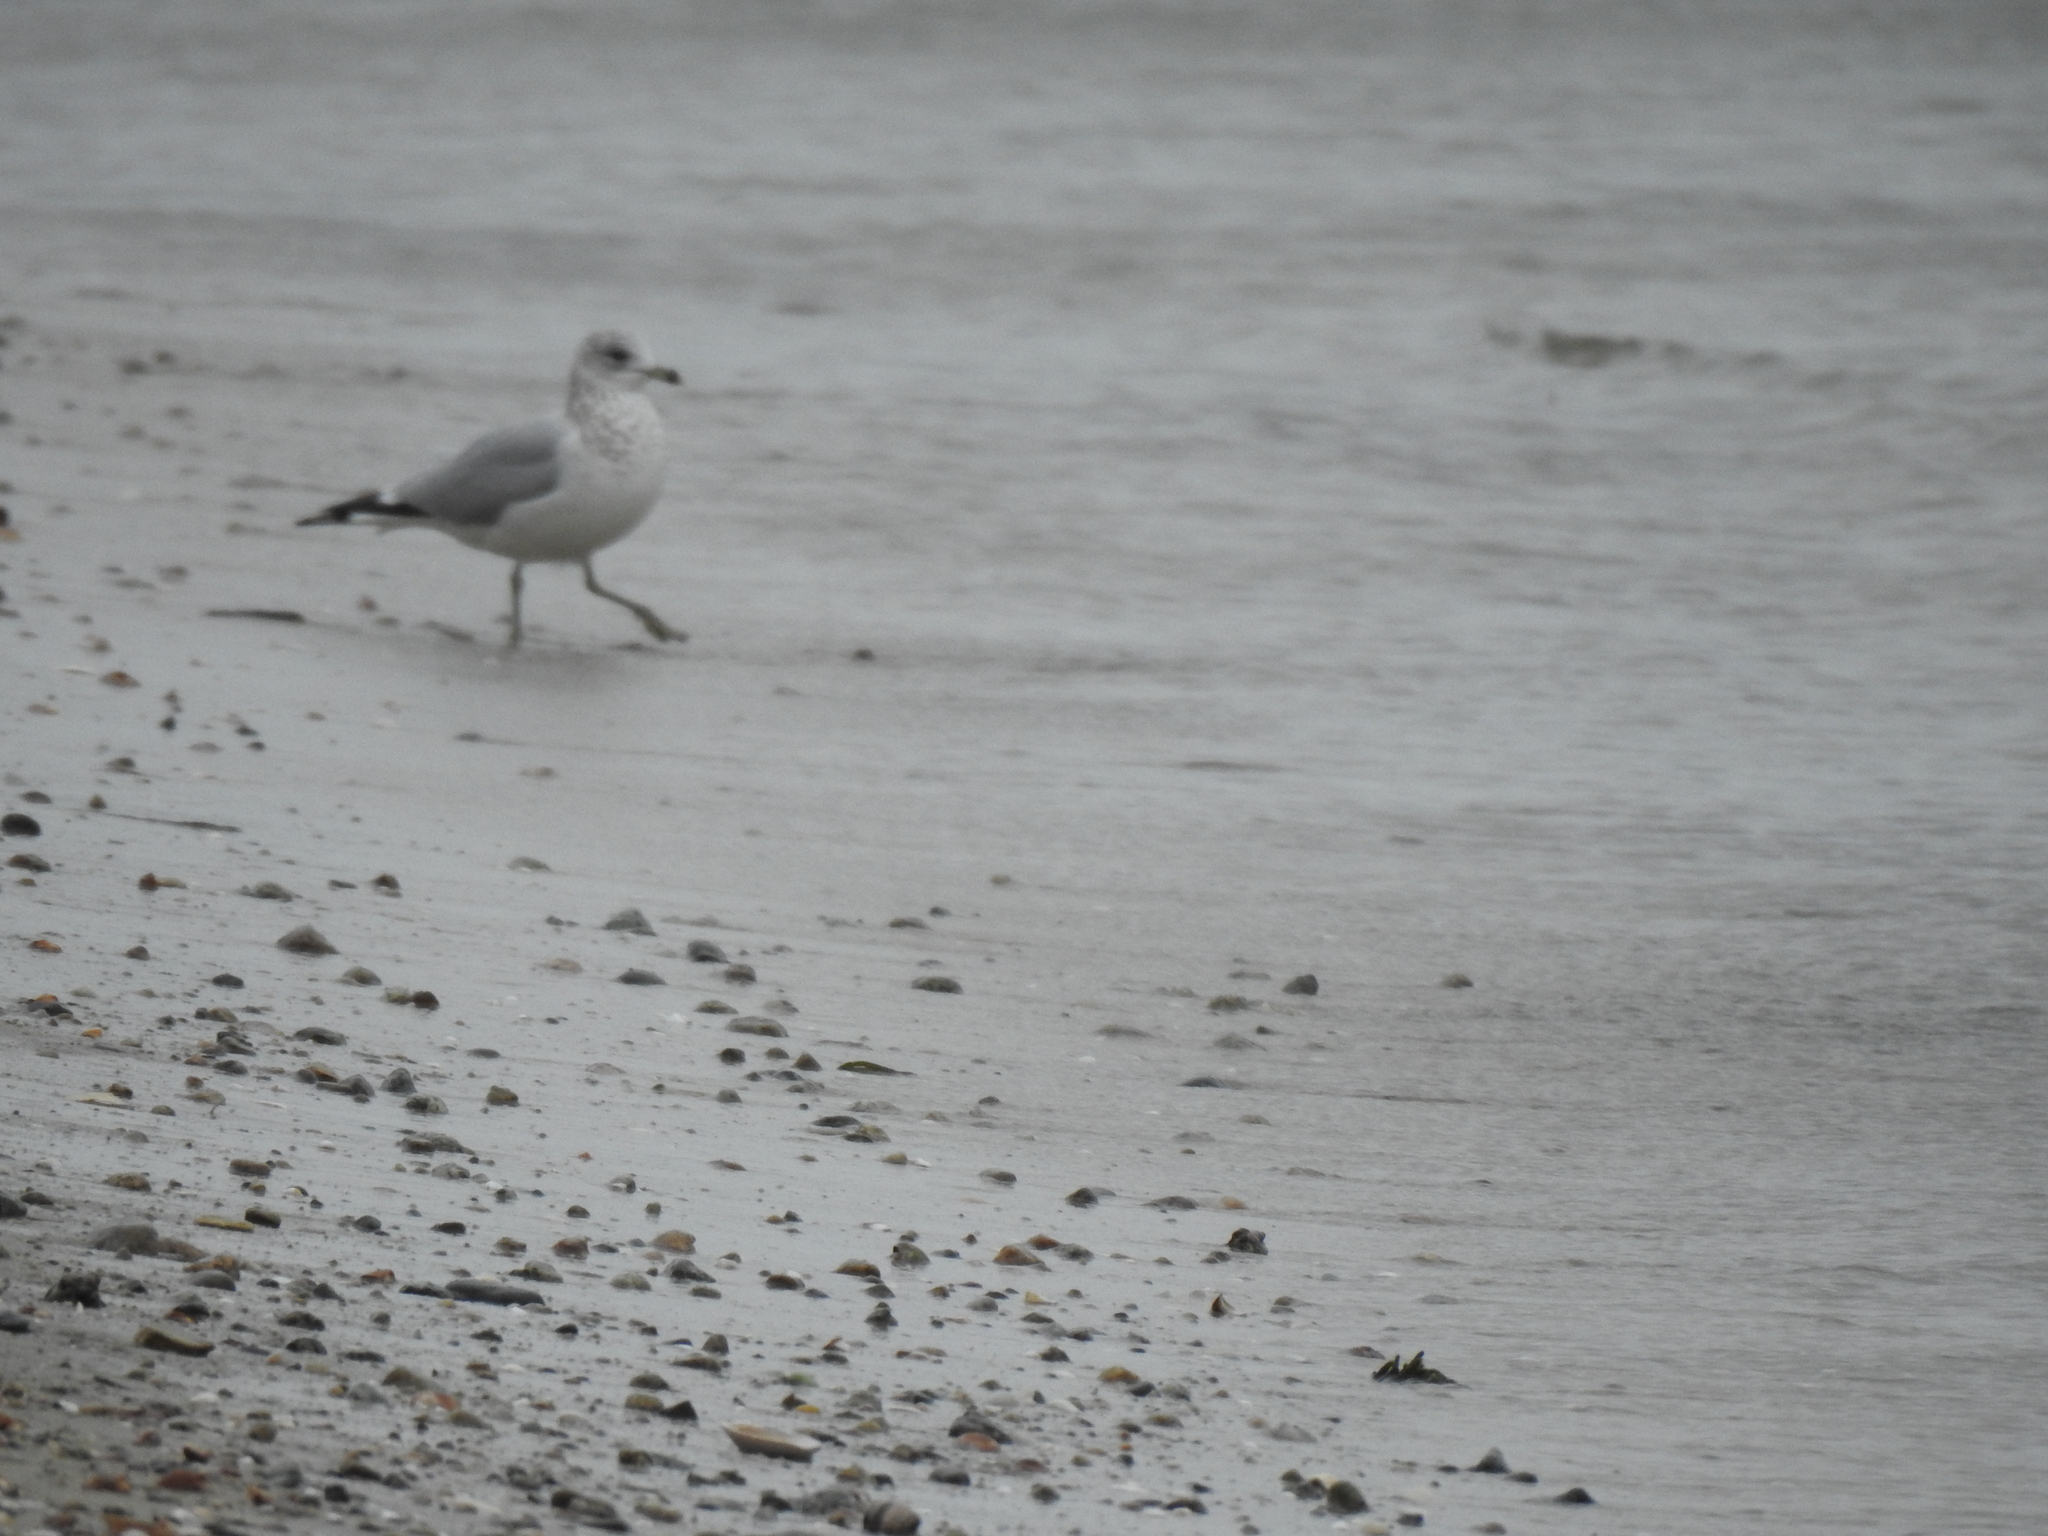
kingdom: Animalia
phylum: Chordata
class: Aves
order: Charadriiformes
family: Laridae
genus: Larus
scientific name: Larus delawarensis
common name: Ring-billed gull
